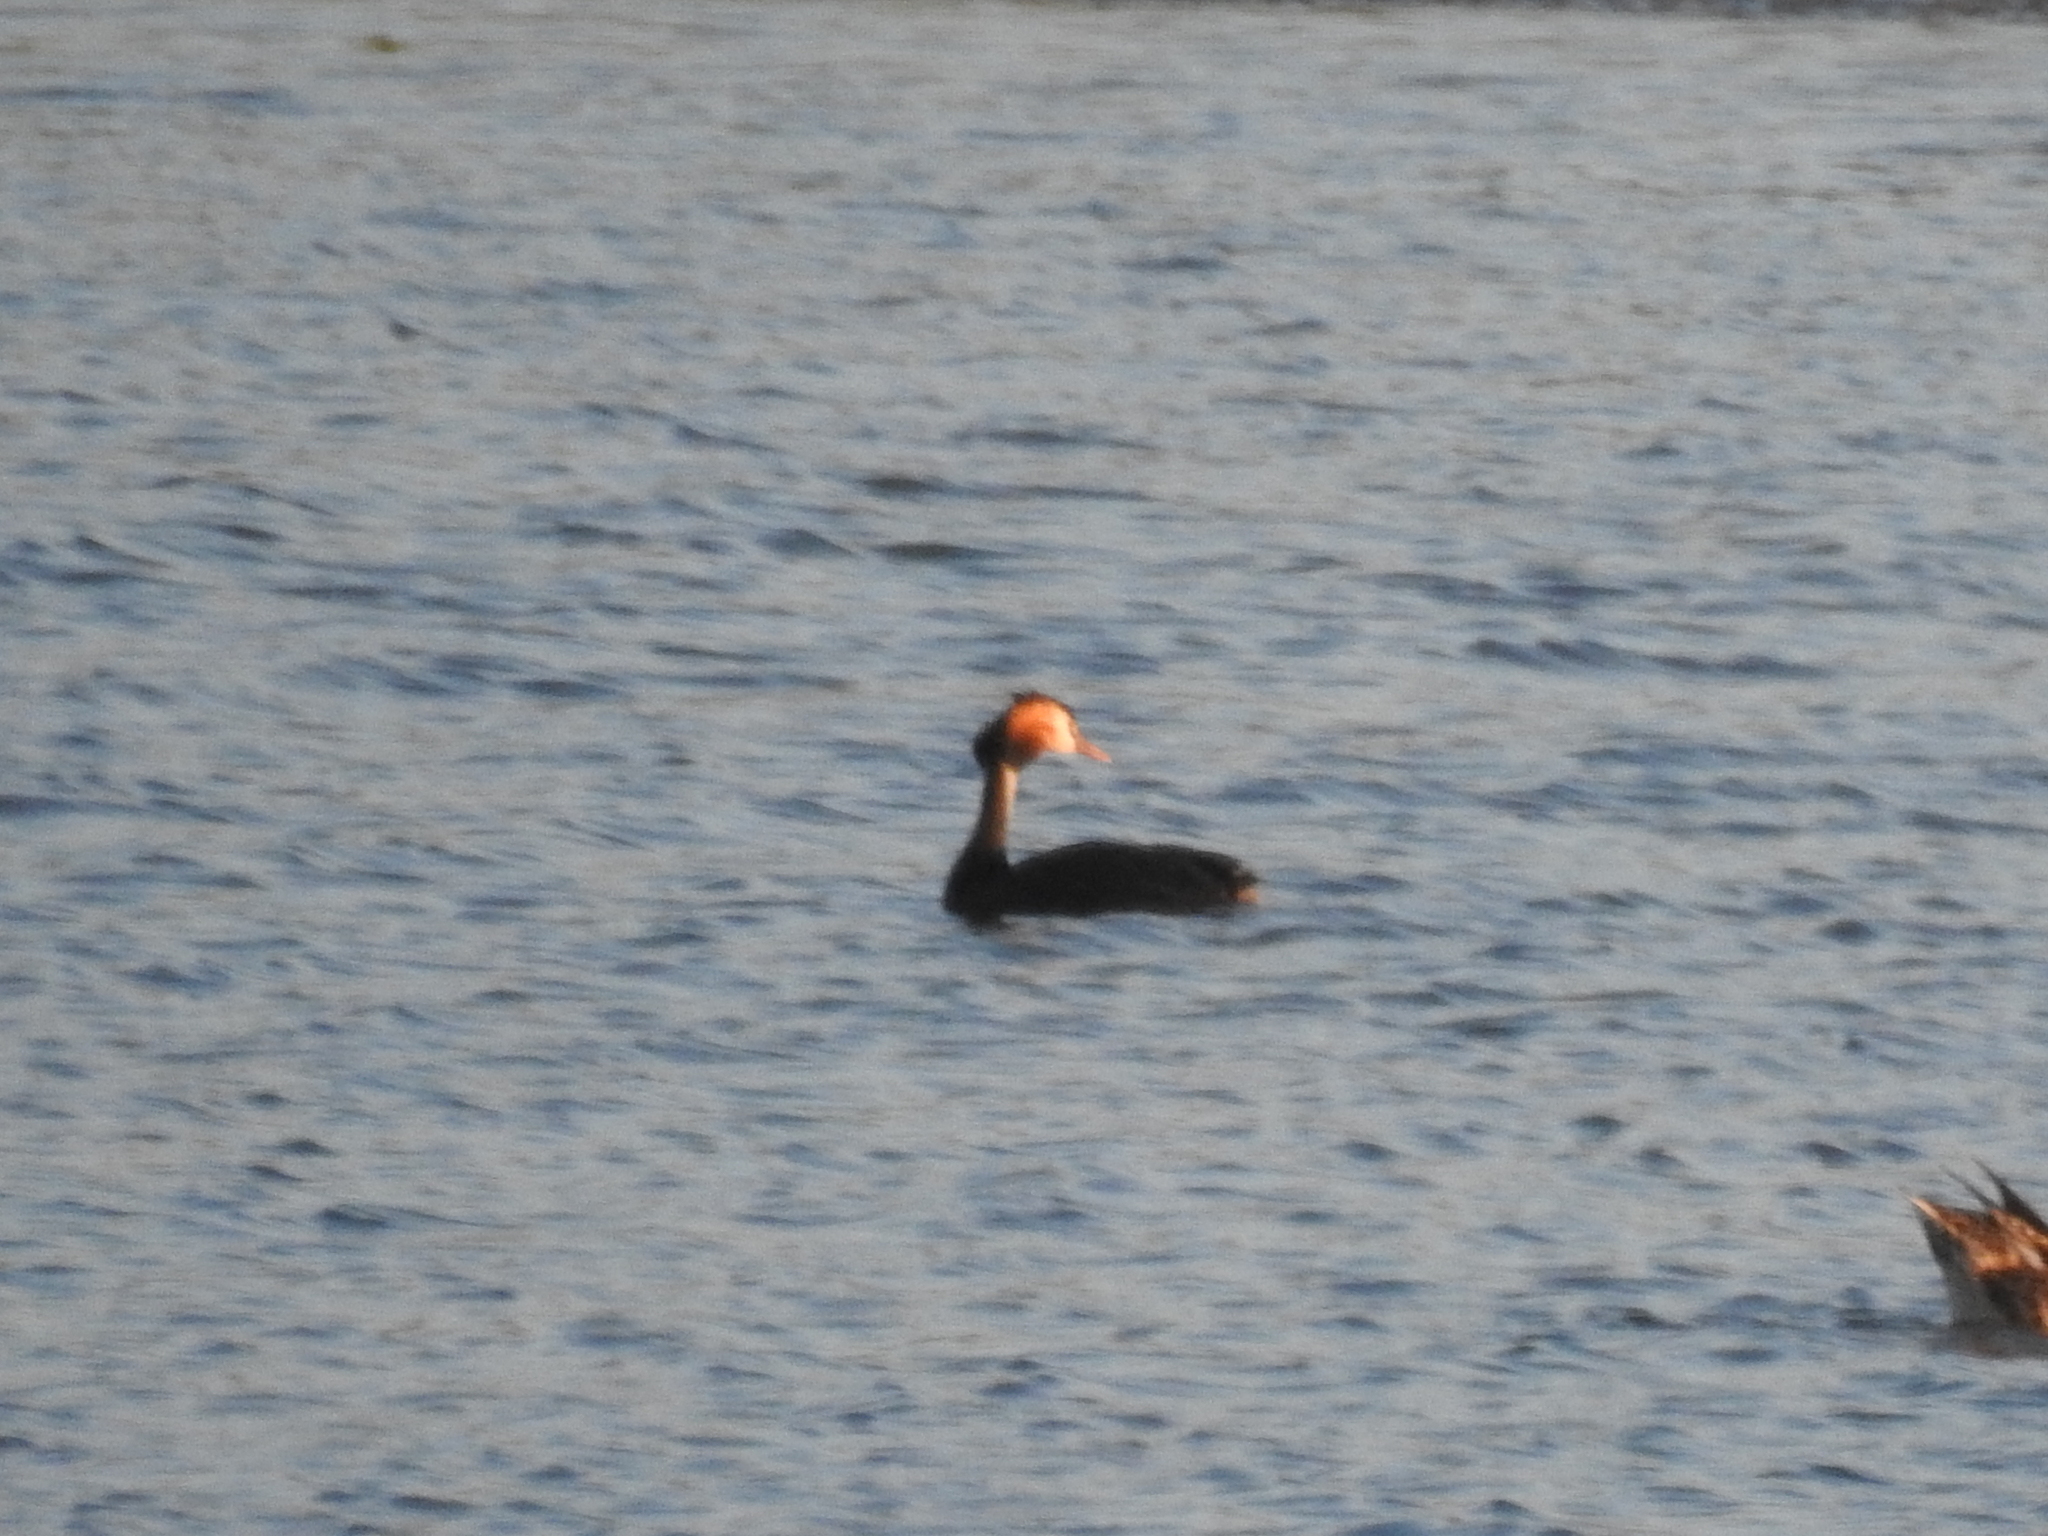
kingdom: Animalia
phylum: Chordata
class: Aves
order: Podicipediformes
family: Podicipedidae
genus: Podiceps
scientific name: Podiceps cristatus
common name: Great crested grebe
